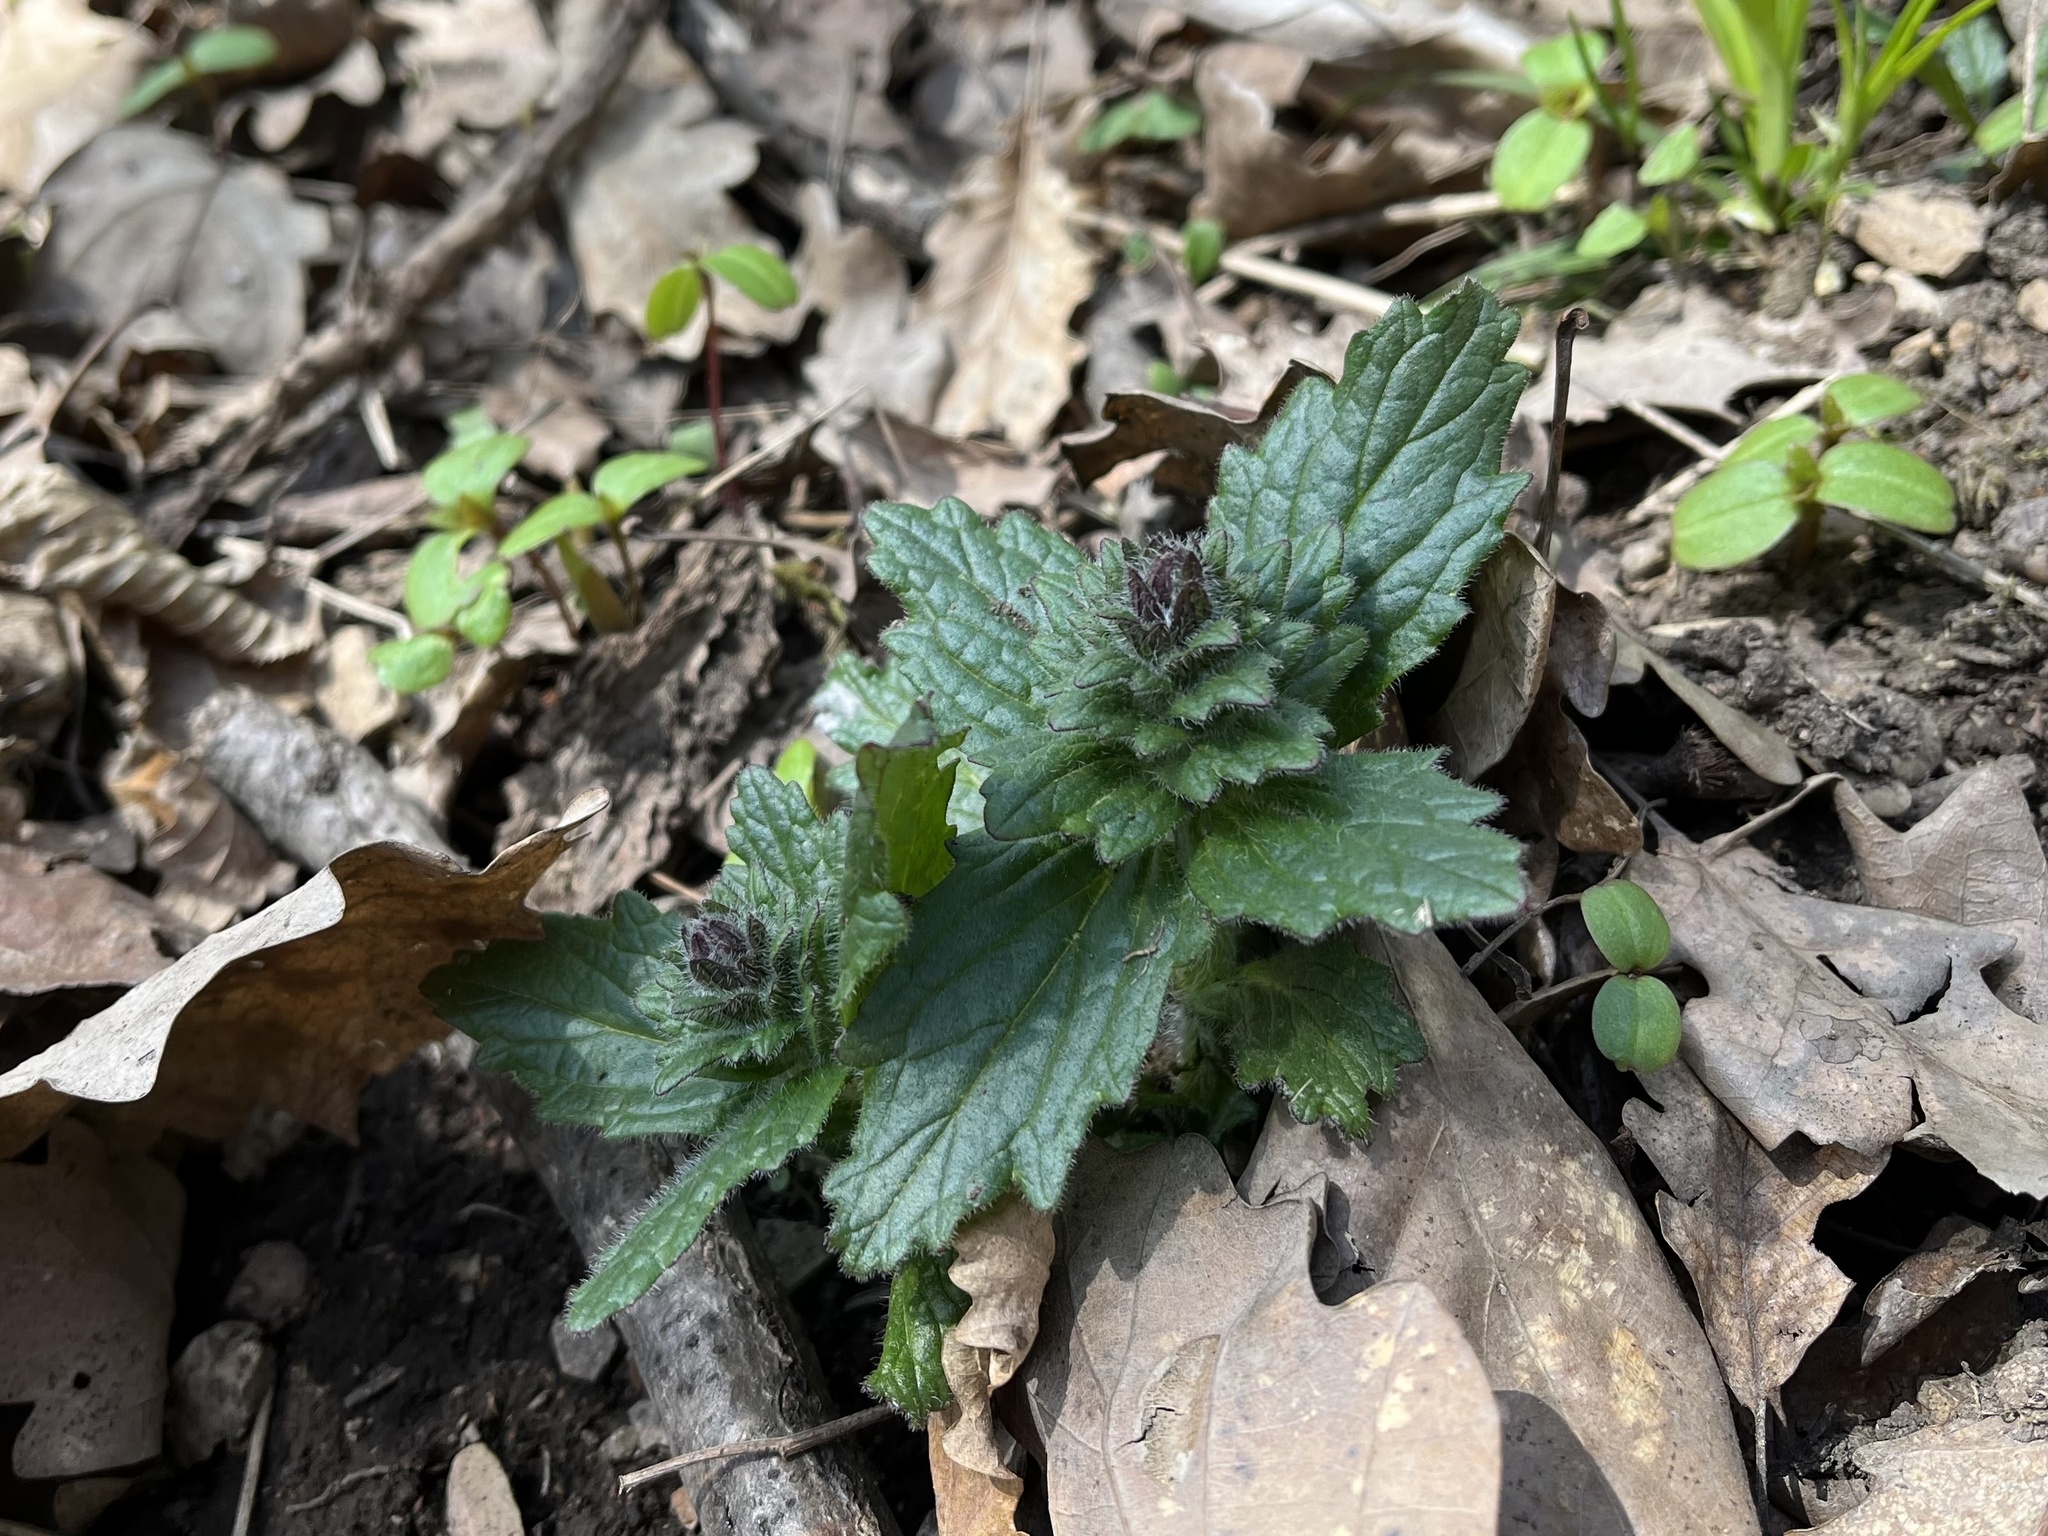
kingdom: Plantae
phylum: Tracheophyta
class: Magnoliopsida
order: Lamiales
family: Lamiaceae
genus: Ajuga
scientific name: Ajuga genevensis
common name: Blue bugle
